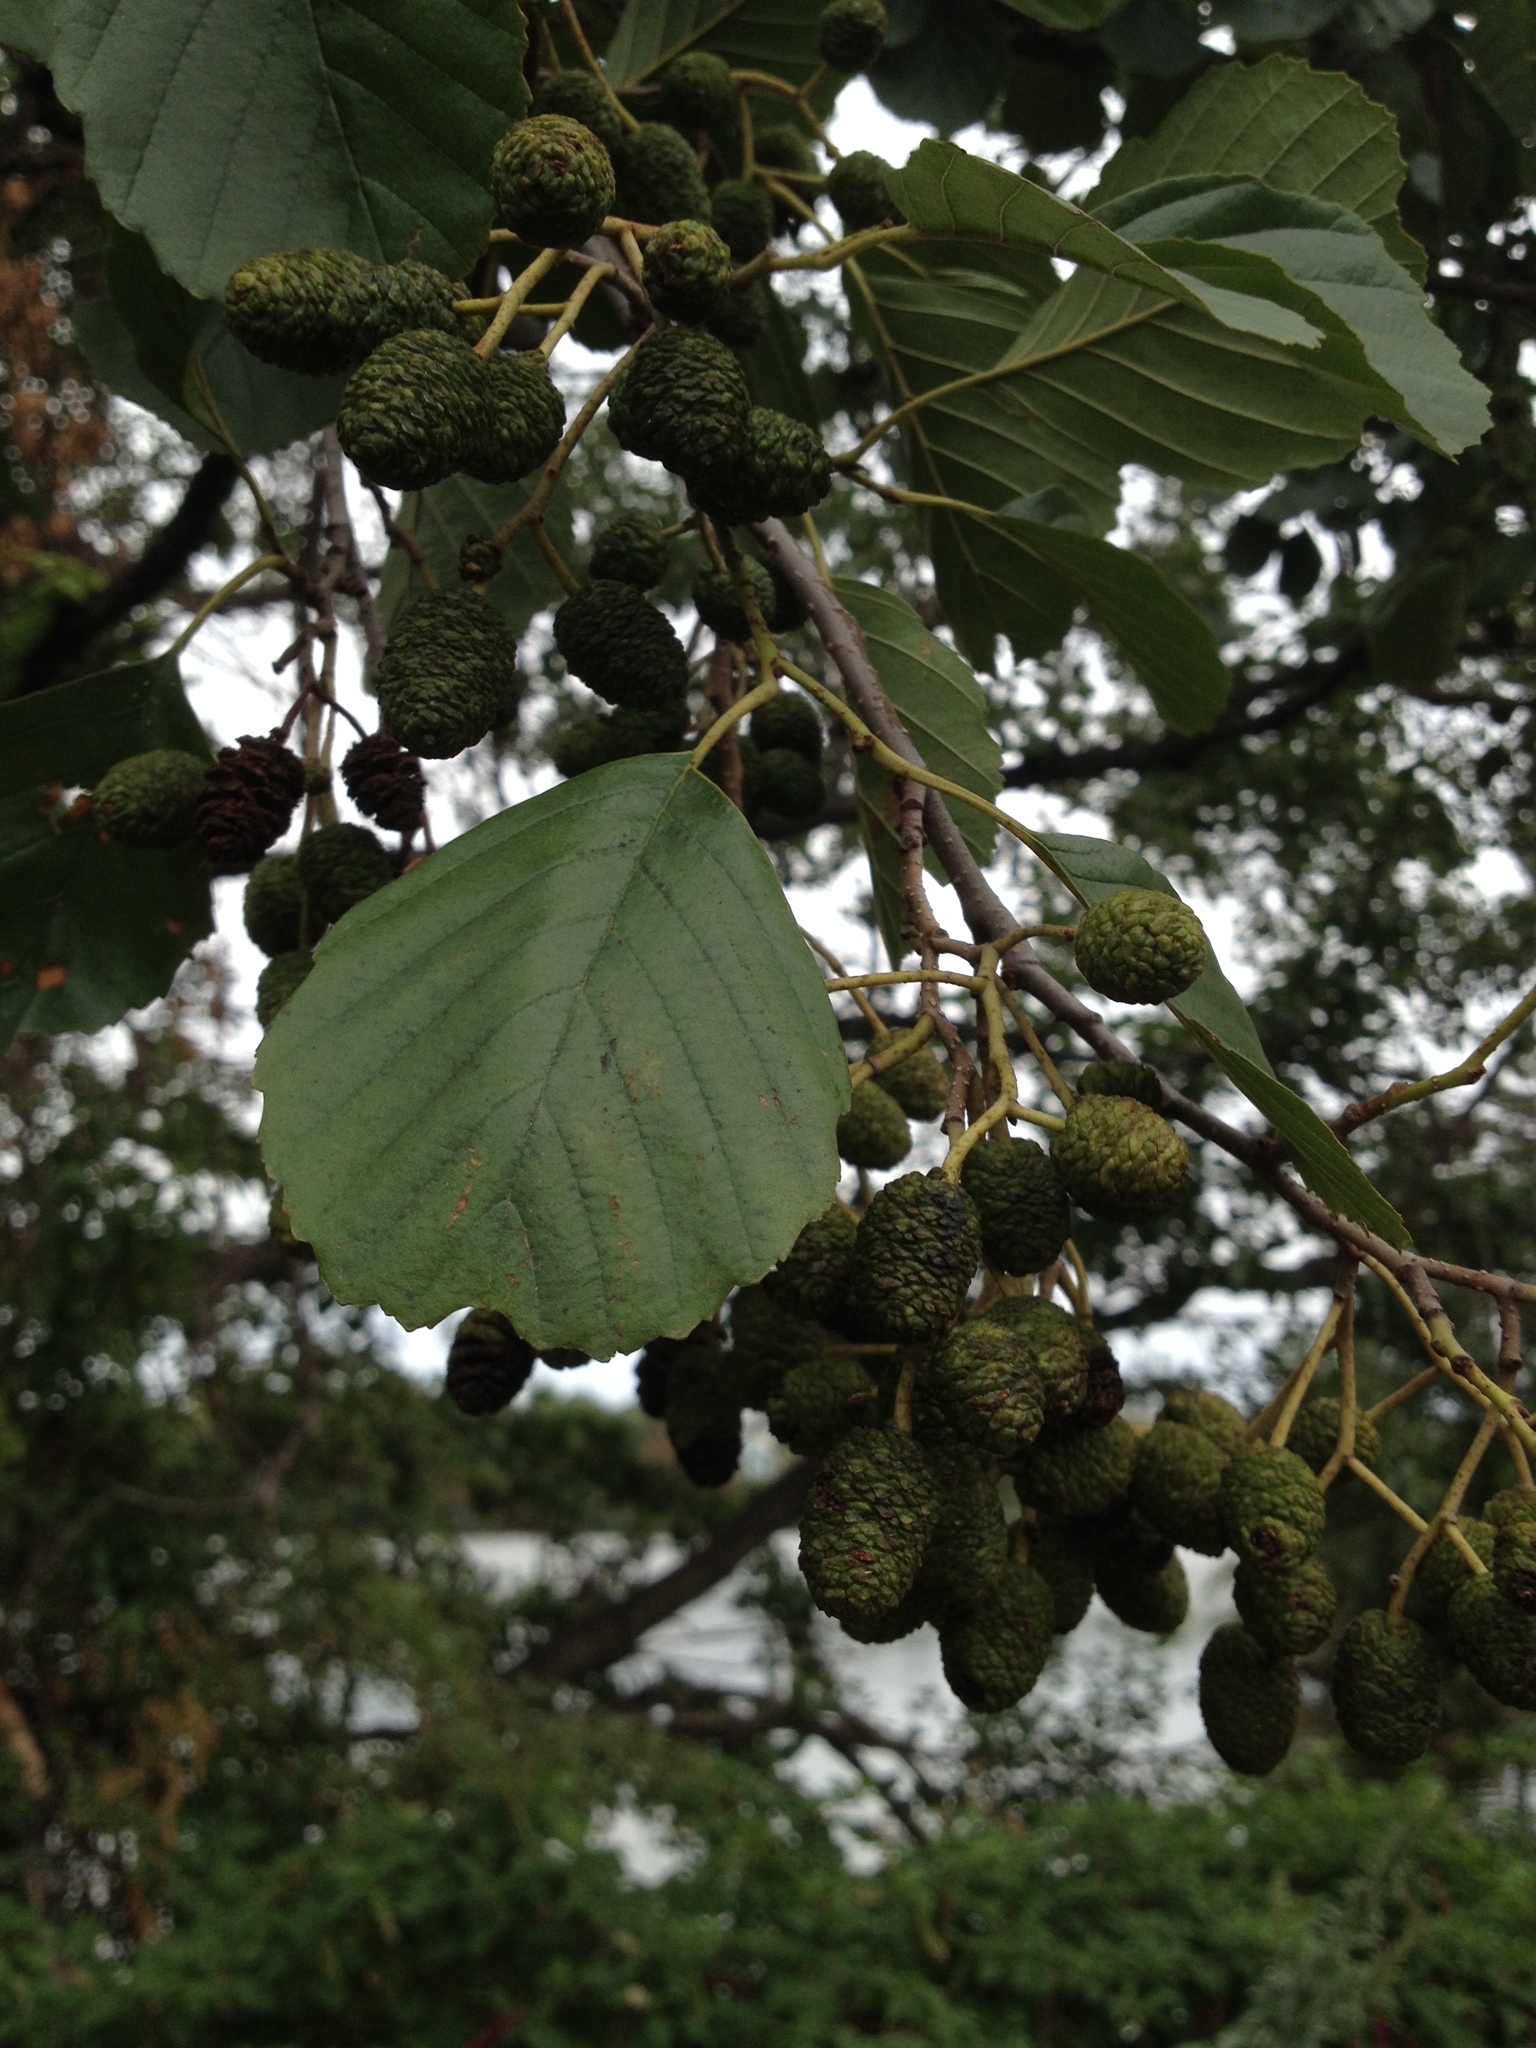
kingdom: Plantae
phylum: Tracheophyta
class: Magnoliopsida
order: Fagales
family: Betulaceae
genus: Alnus
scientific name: Alnus glutinosa
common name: Black alder
